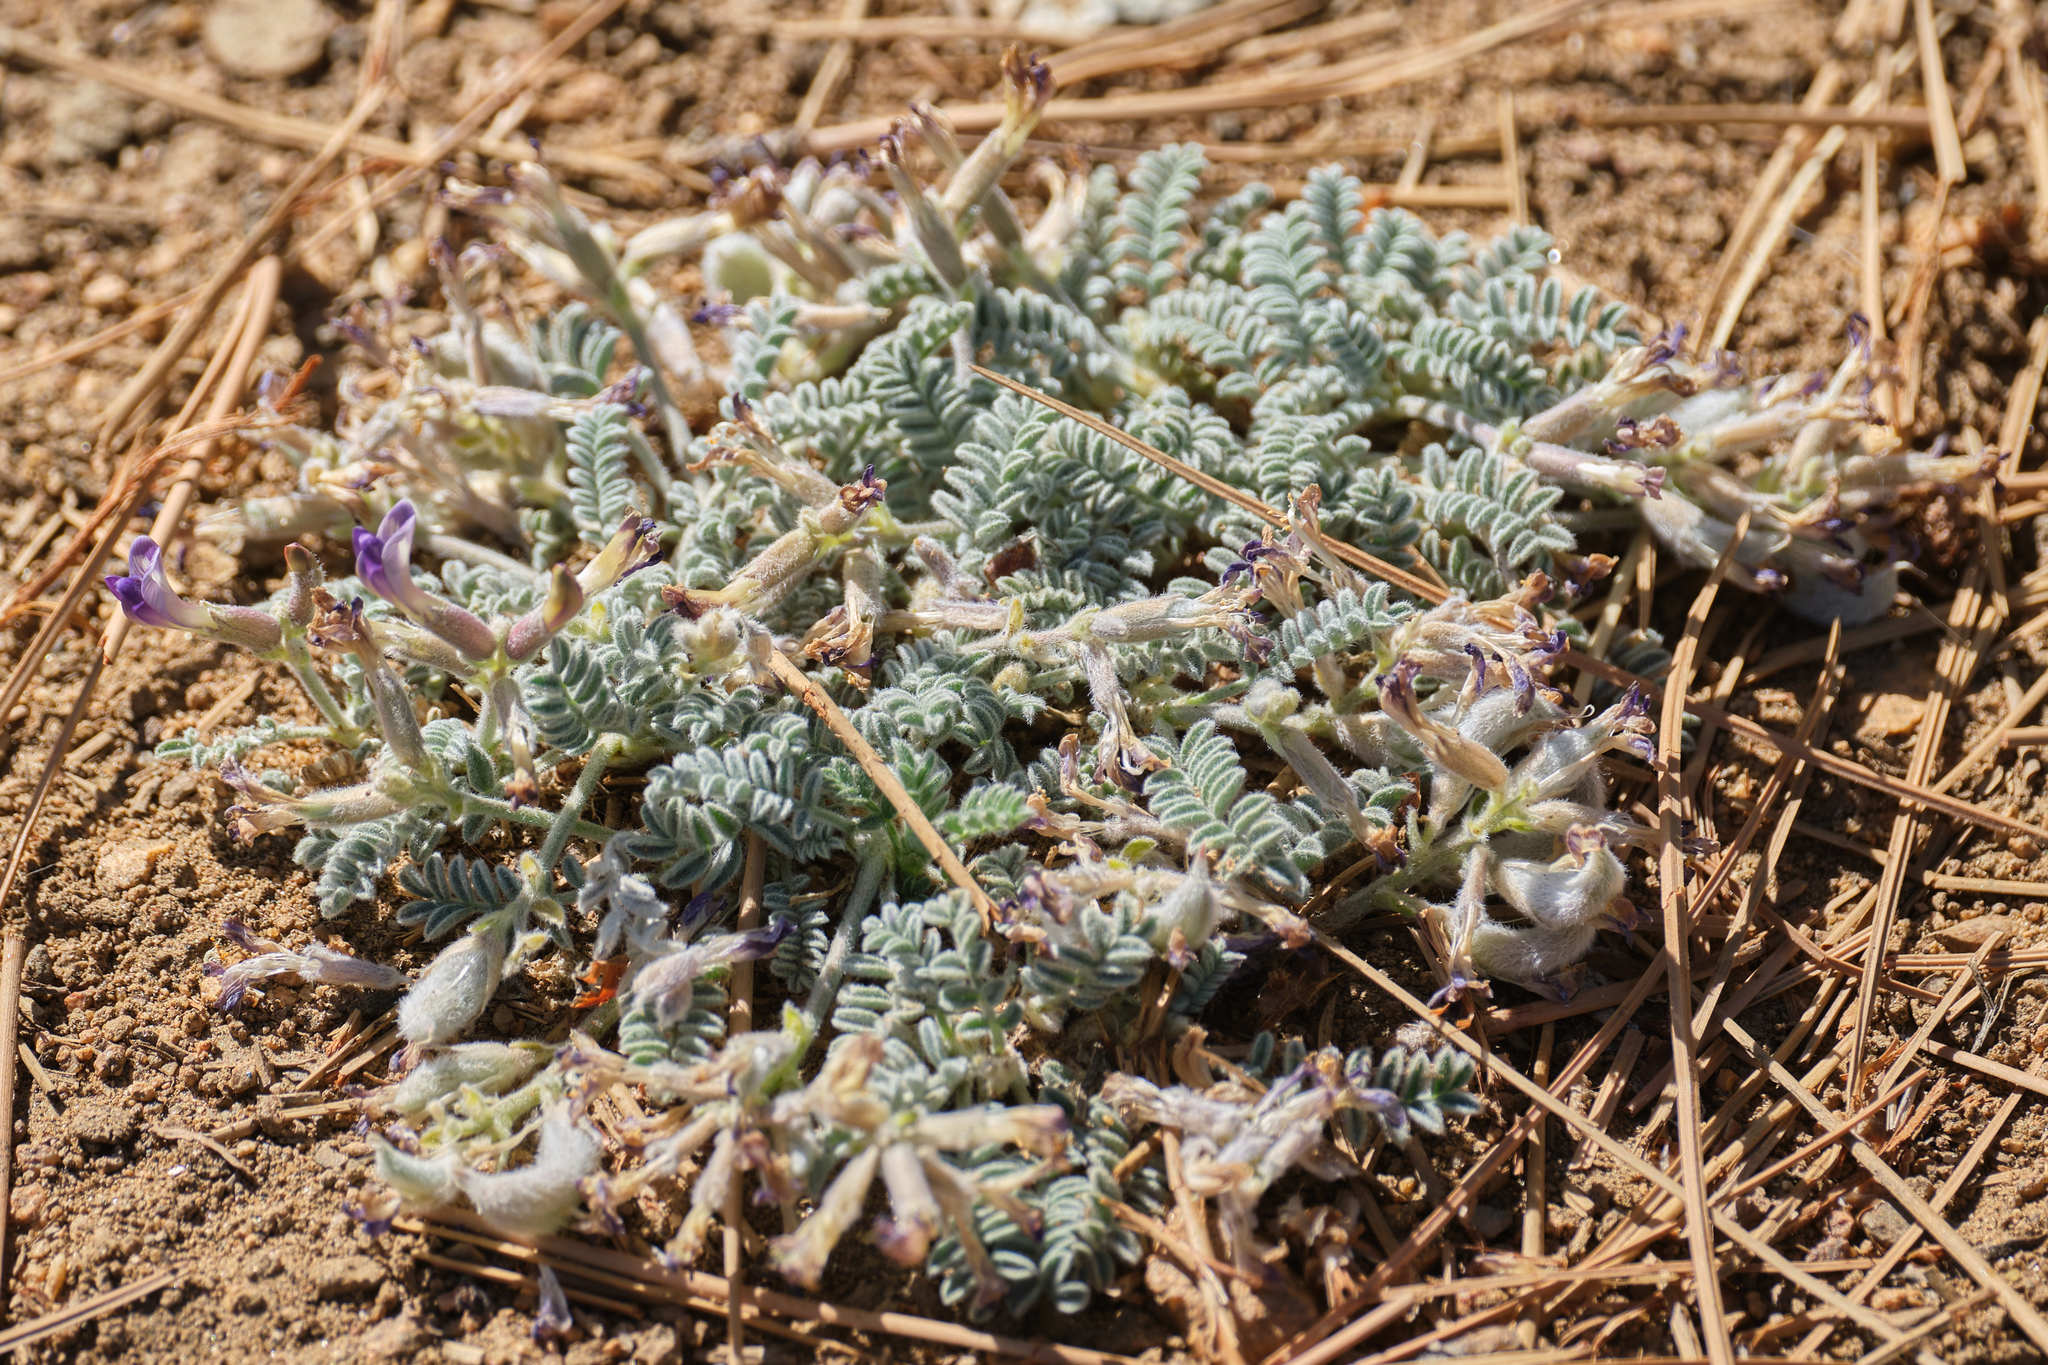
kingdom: Plantae
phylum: Tracheophyta
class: Magnoliopsida
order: Fabales
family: Fabaceae
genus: Astragalus
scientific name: Astragalus purshii
